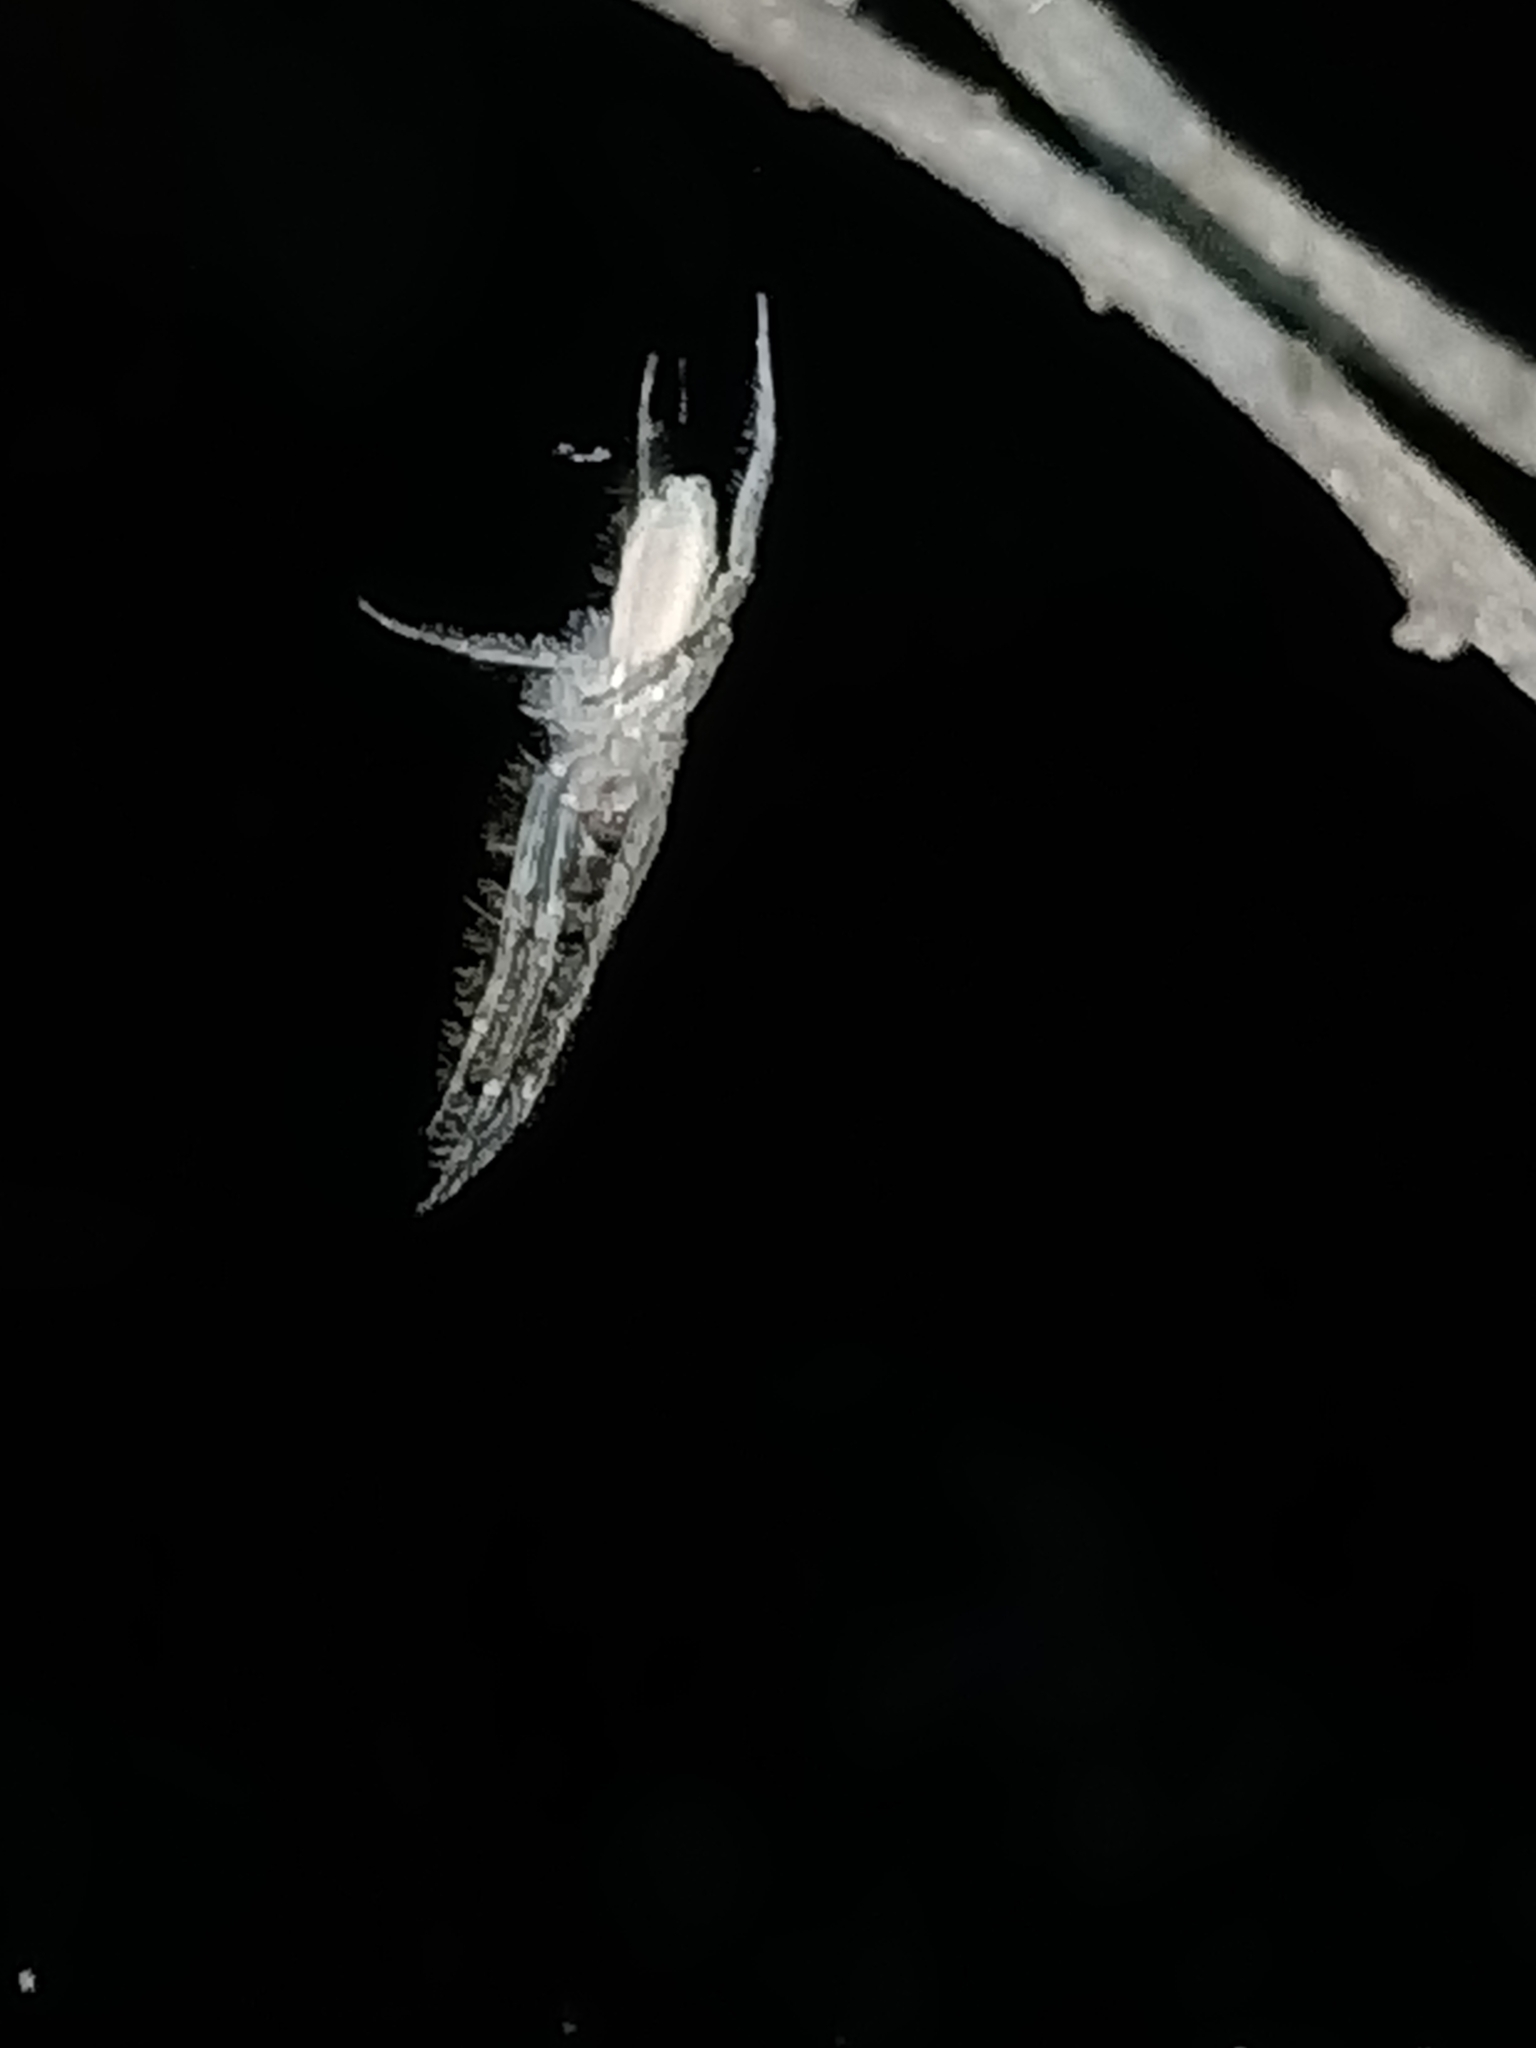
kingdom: Animalia
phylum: Arthropoda
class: Arachnida
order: Araneae
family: Senoculidae
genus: Senoculus
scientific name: Senoculus
